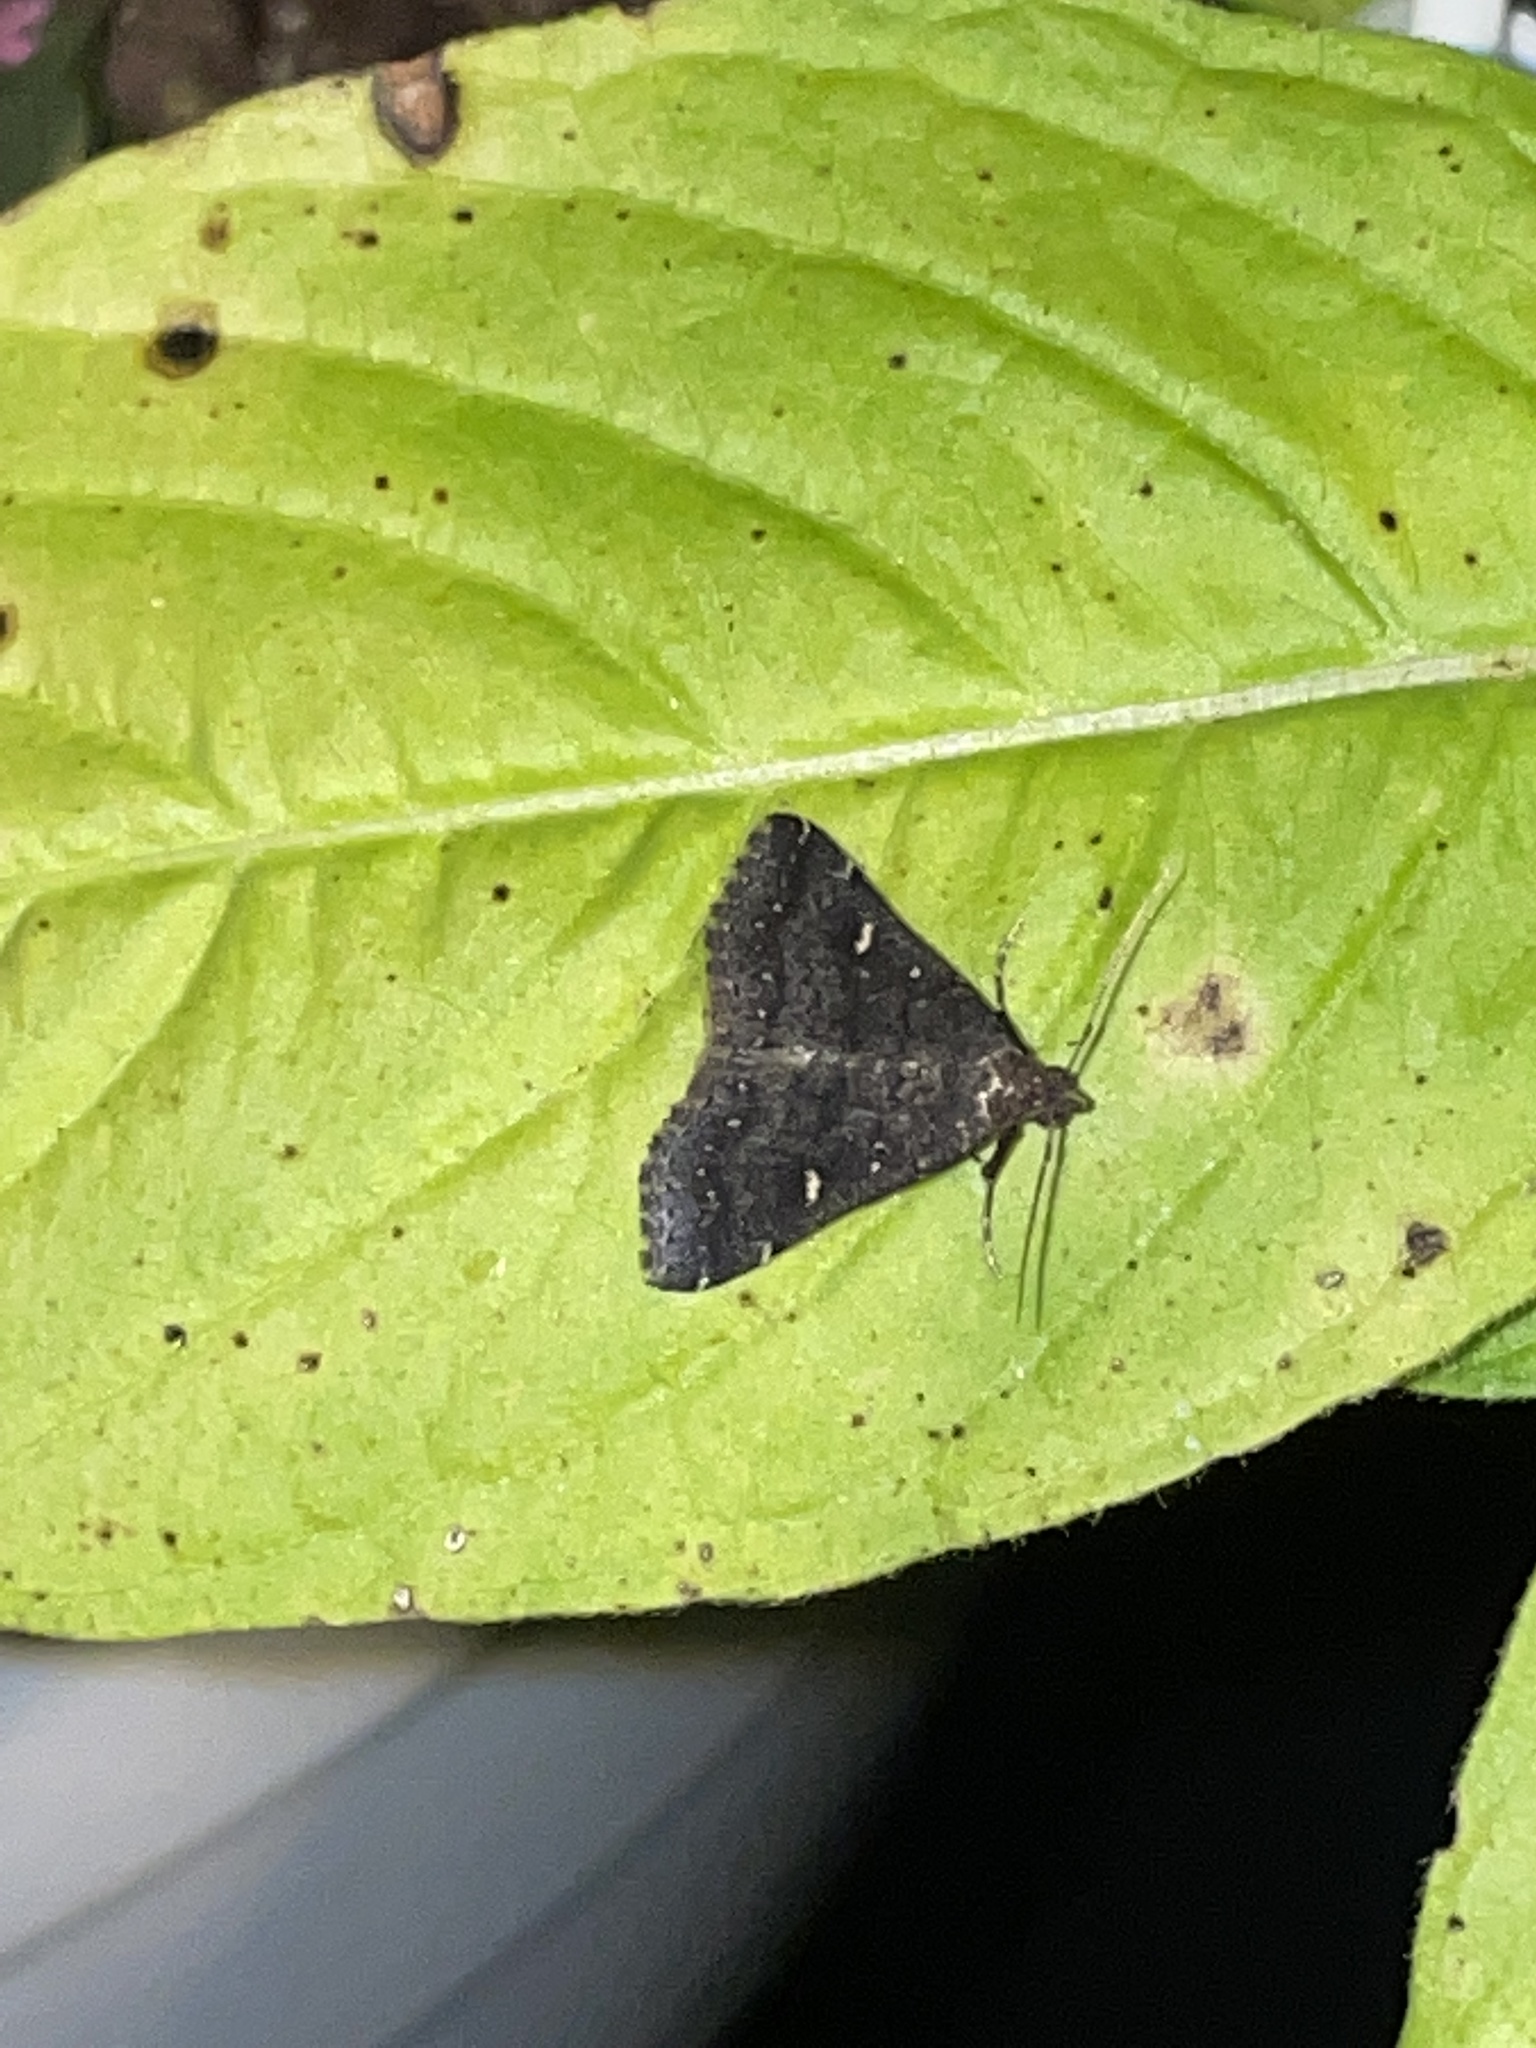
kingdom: Animalia
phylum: Arthropoda
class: Insecta
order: Lepidoptera
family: Erebidae
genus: Tetanolita
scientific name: Tetanolita mynesalis
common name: Smoky tetanolita moth
